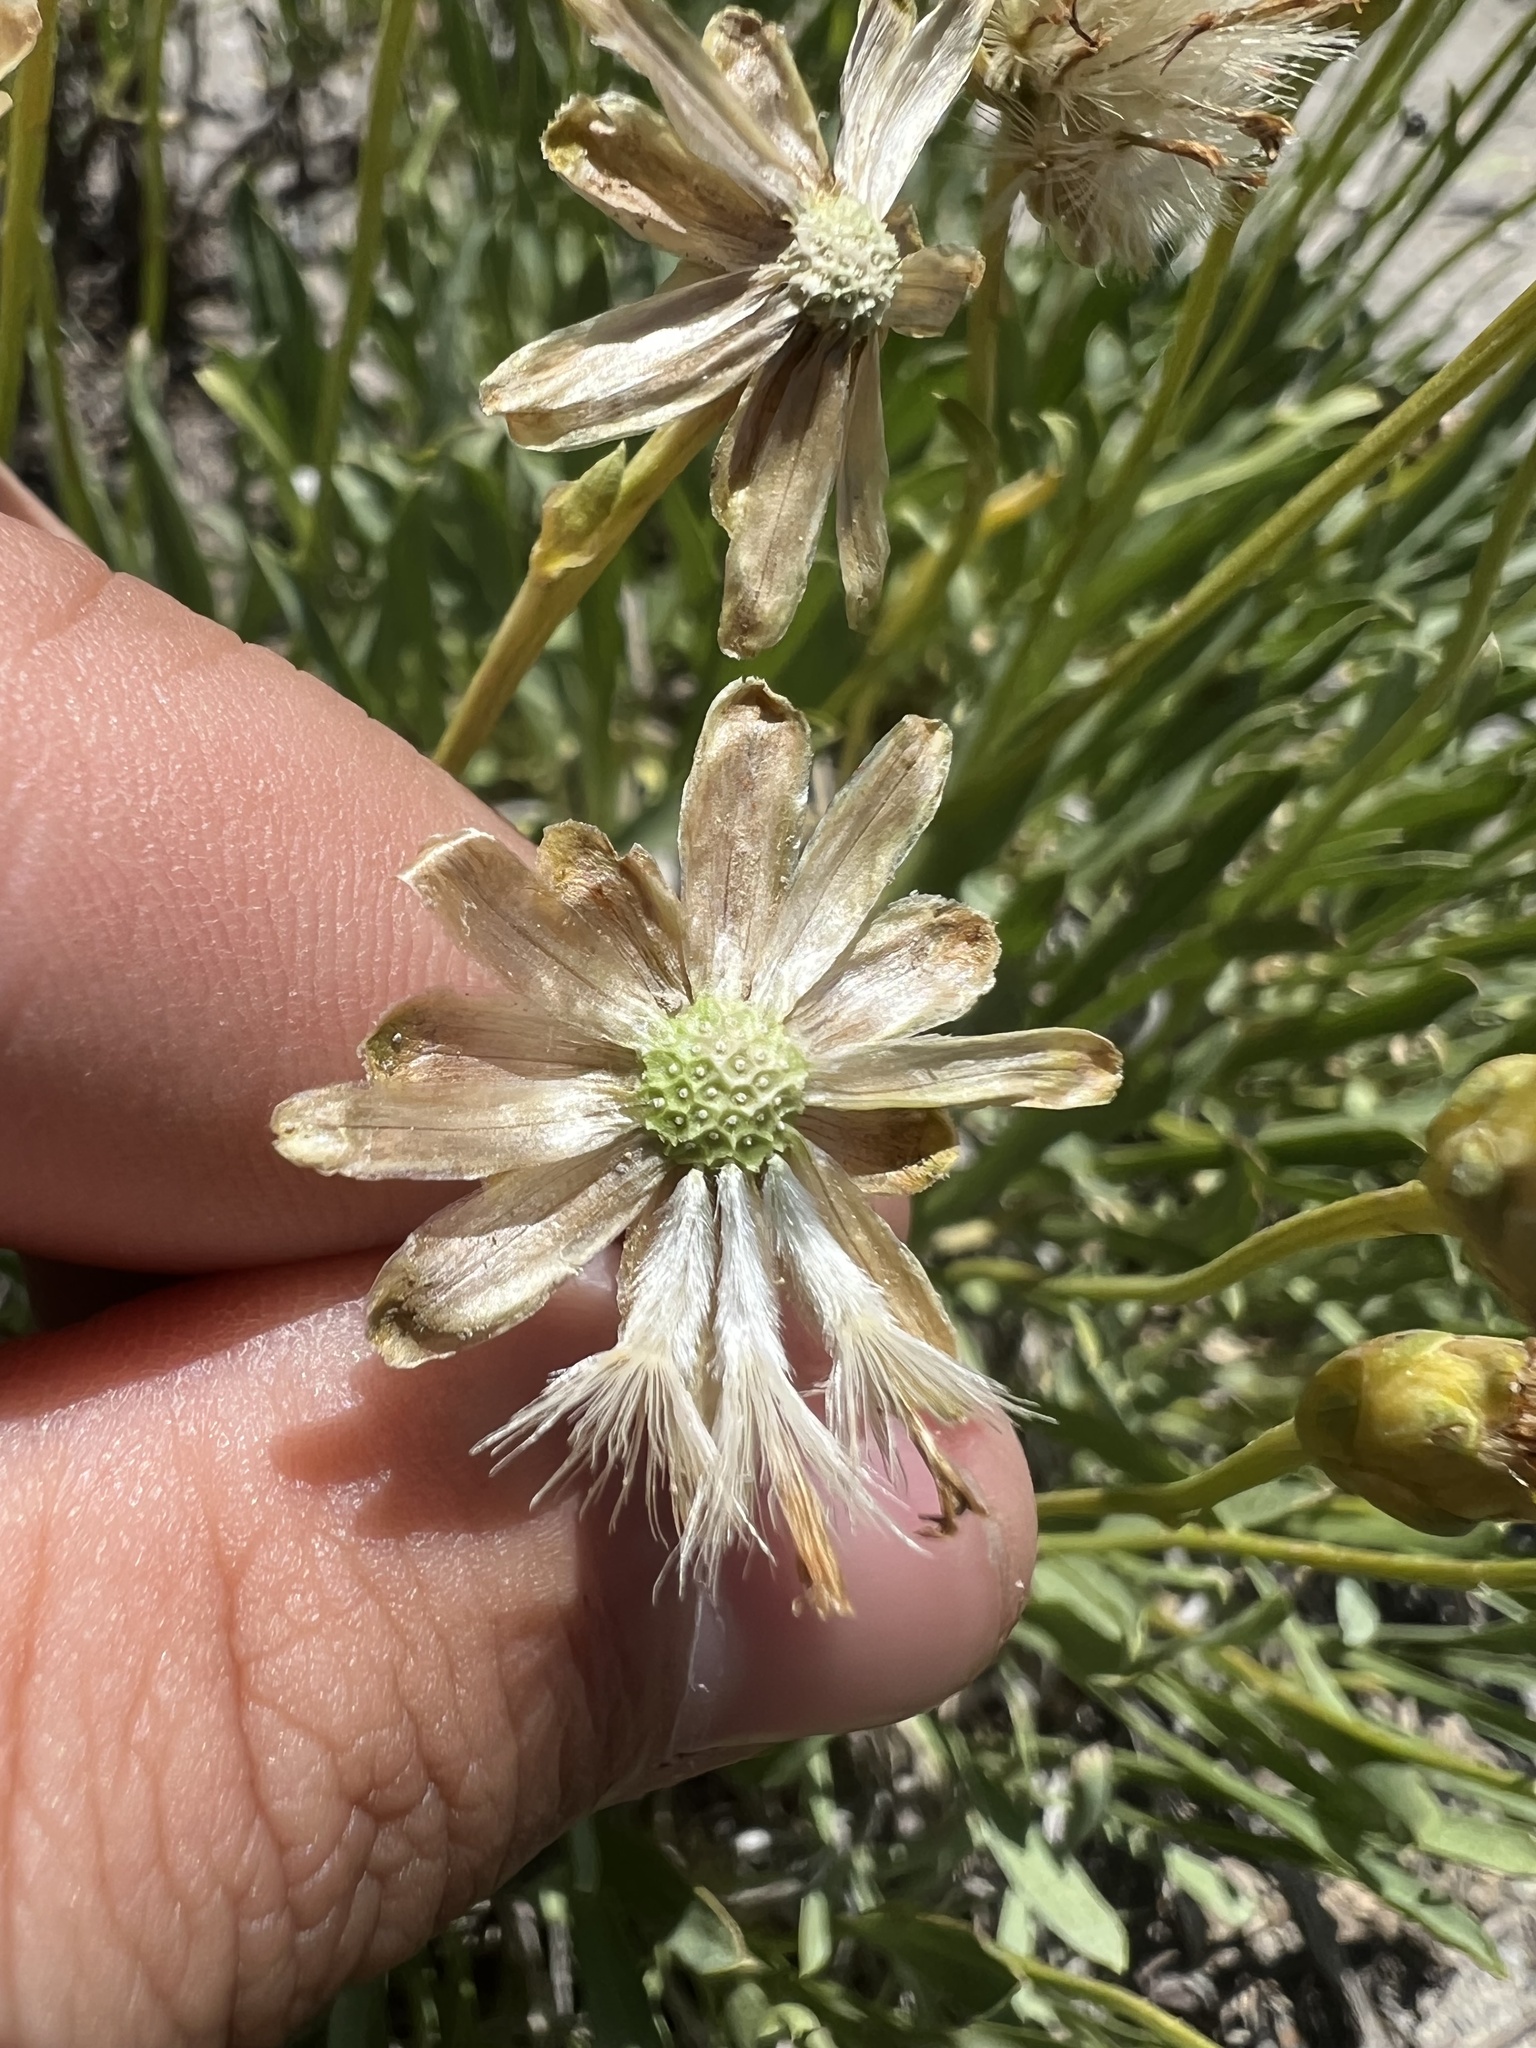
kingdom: Plantae
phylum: Tracheophyta
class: Magnoliopsida
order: Asterales
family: Asteraceae
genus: Stenotus
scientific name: Stenotus armerioides
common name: Thrifty goldenweed
